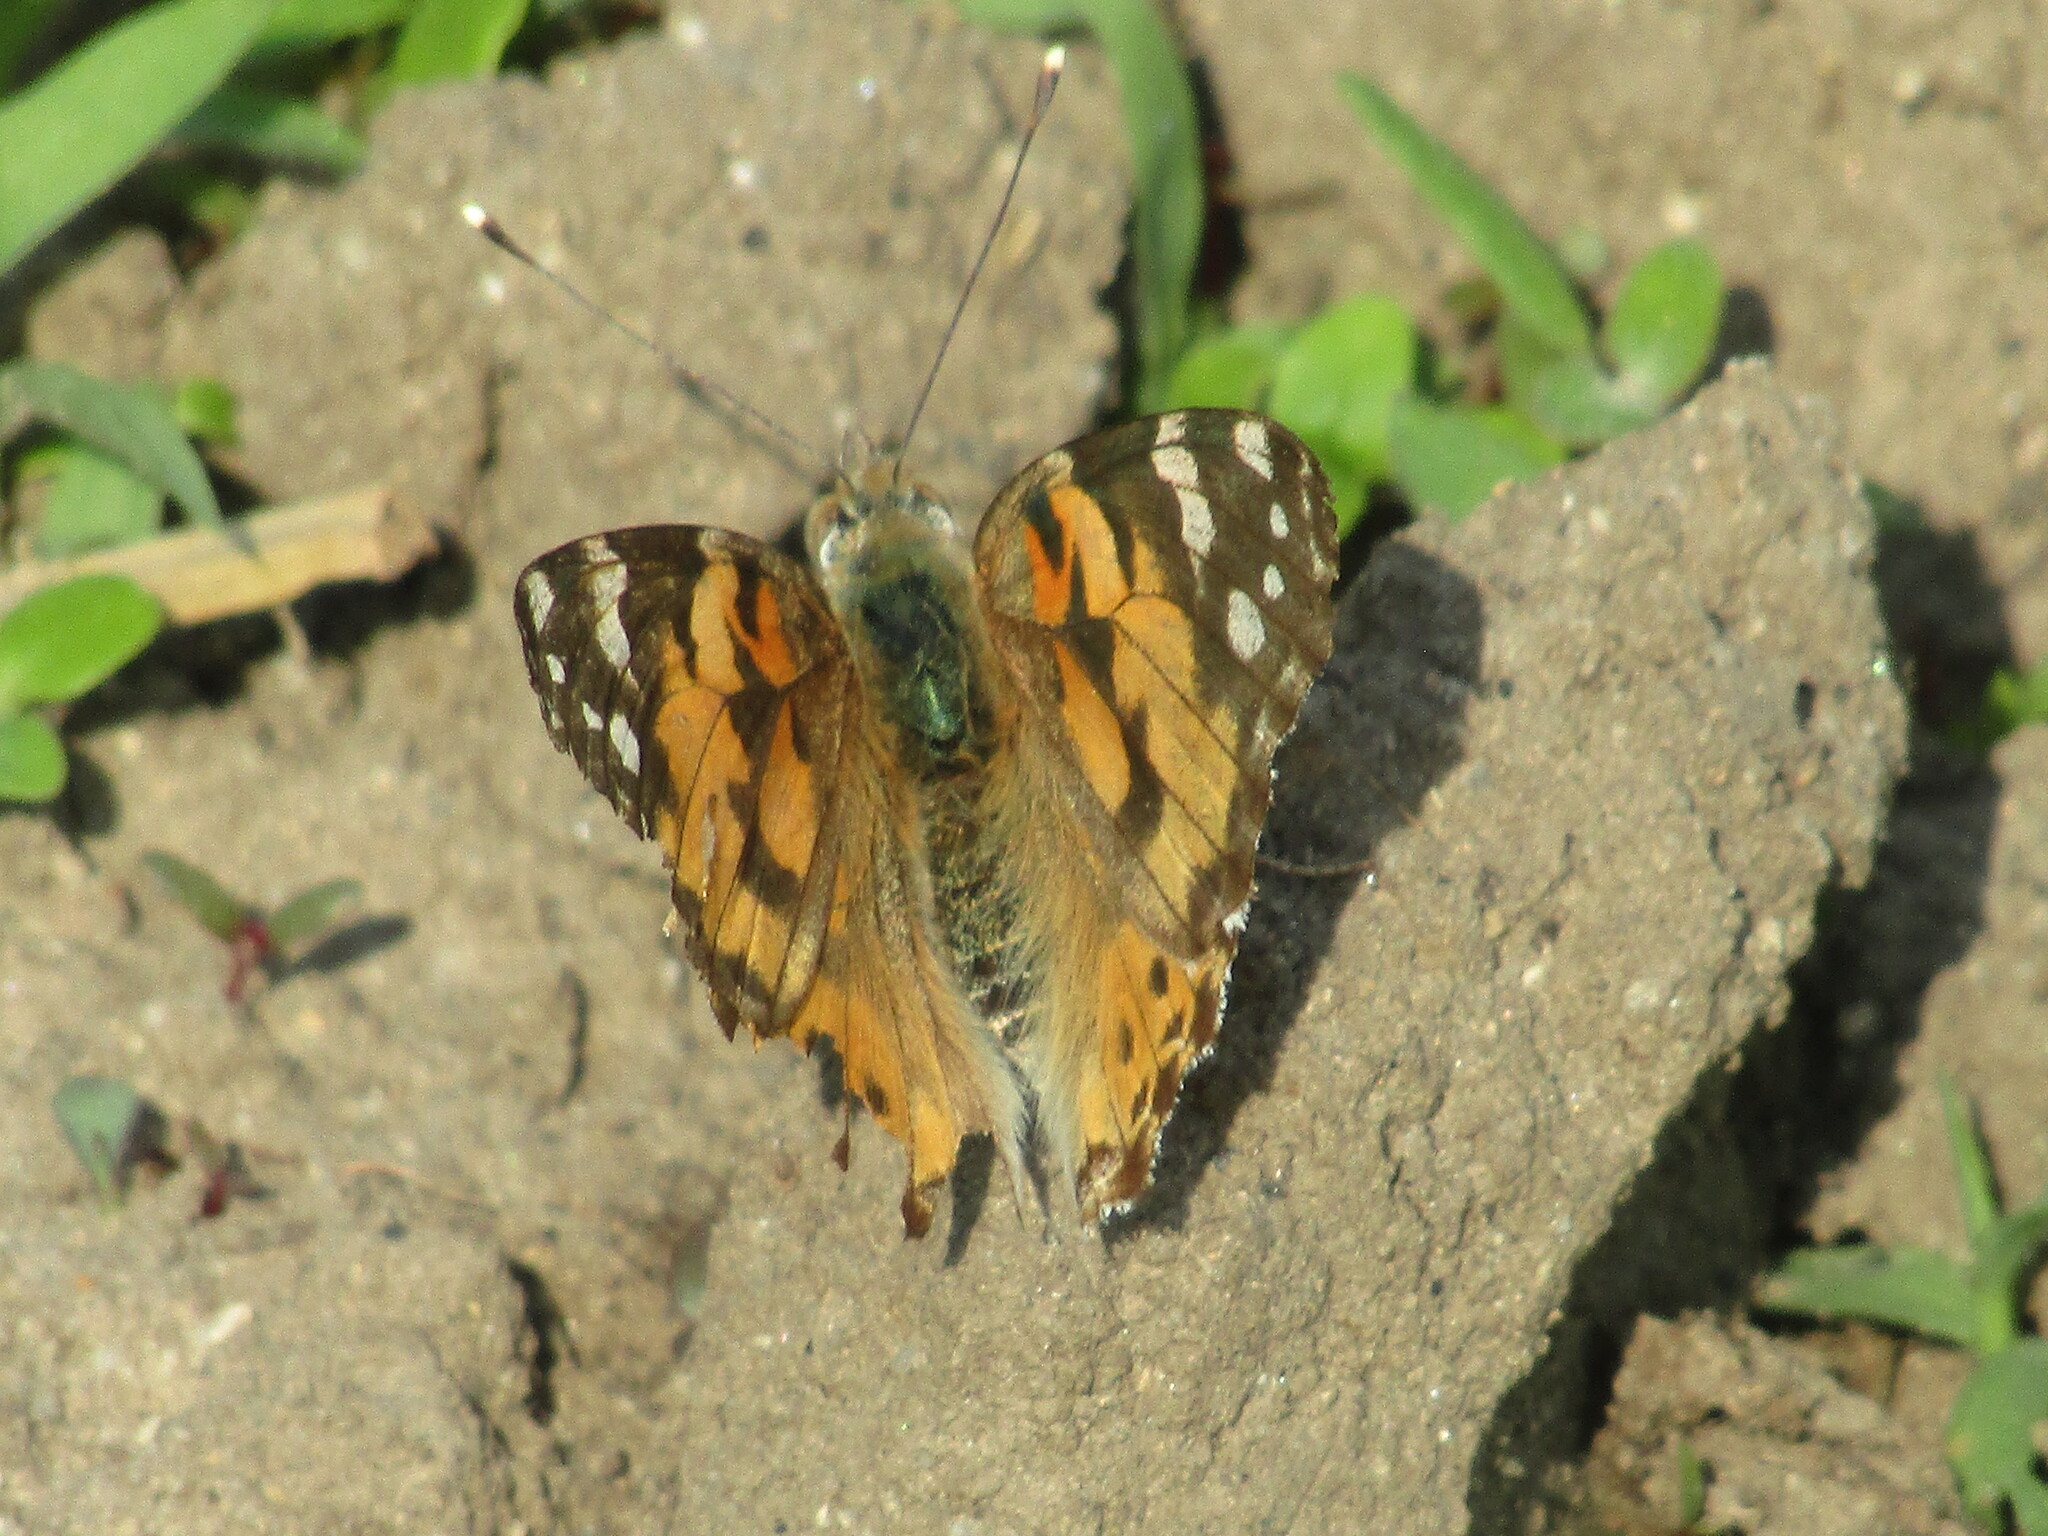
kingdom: Animalia
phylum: Arthropoda
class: Insecta
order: Lepidoptera
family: Nymphalidae
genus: Vanessa
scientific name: Vanessa cardui
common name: Painted lady
